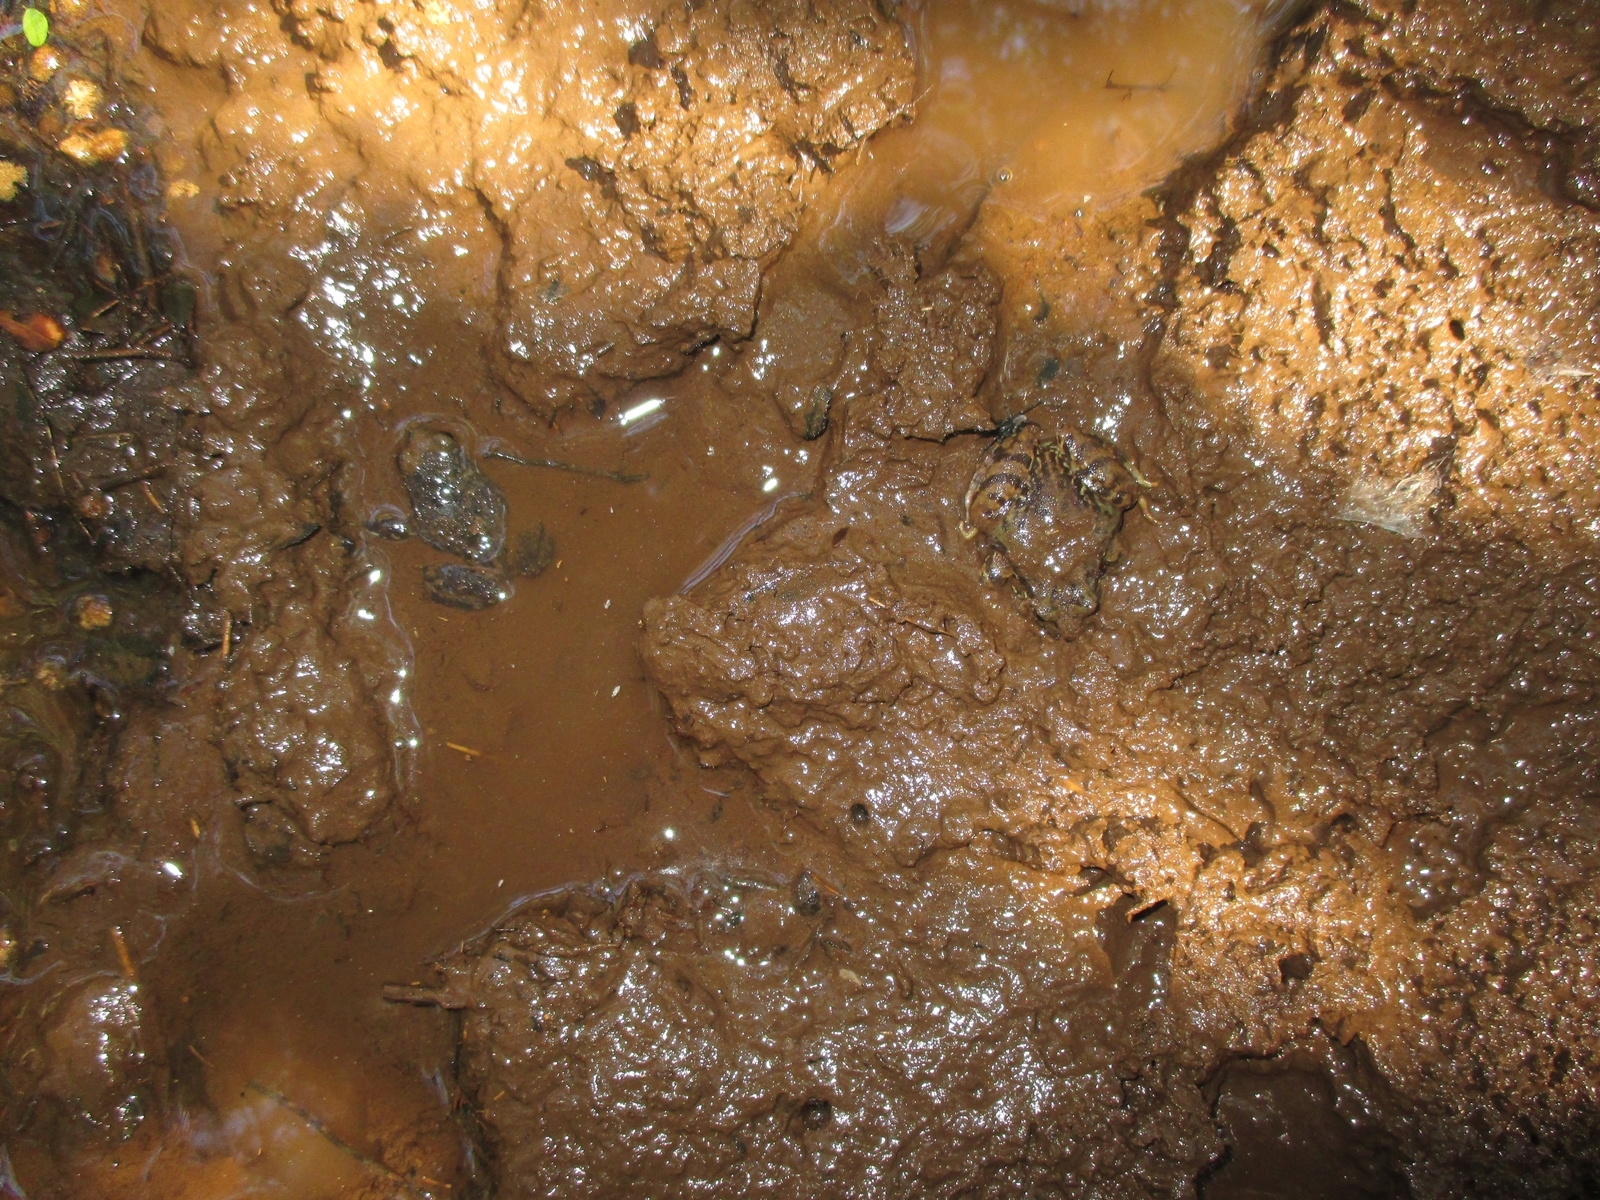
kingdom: Animalia
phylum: Chordata
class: Amphibia
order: Anura
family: Alsodidae
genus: Eupsophus
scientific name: Eupsophus roseus
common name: Rosy ground frog
